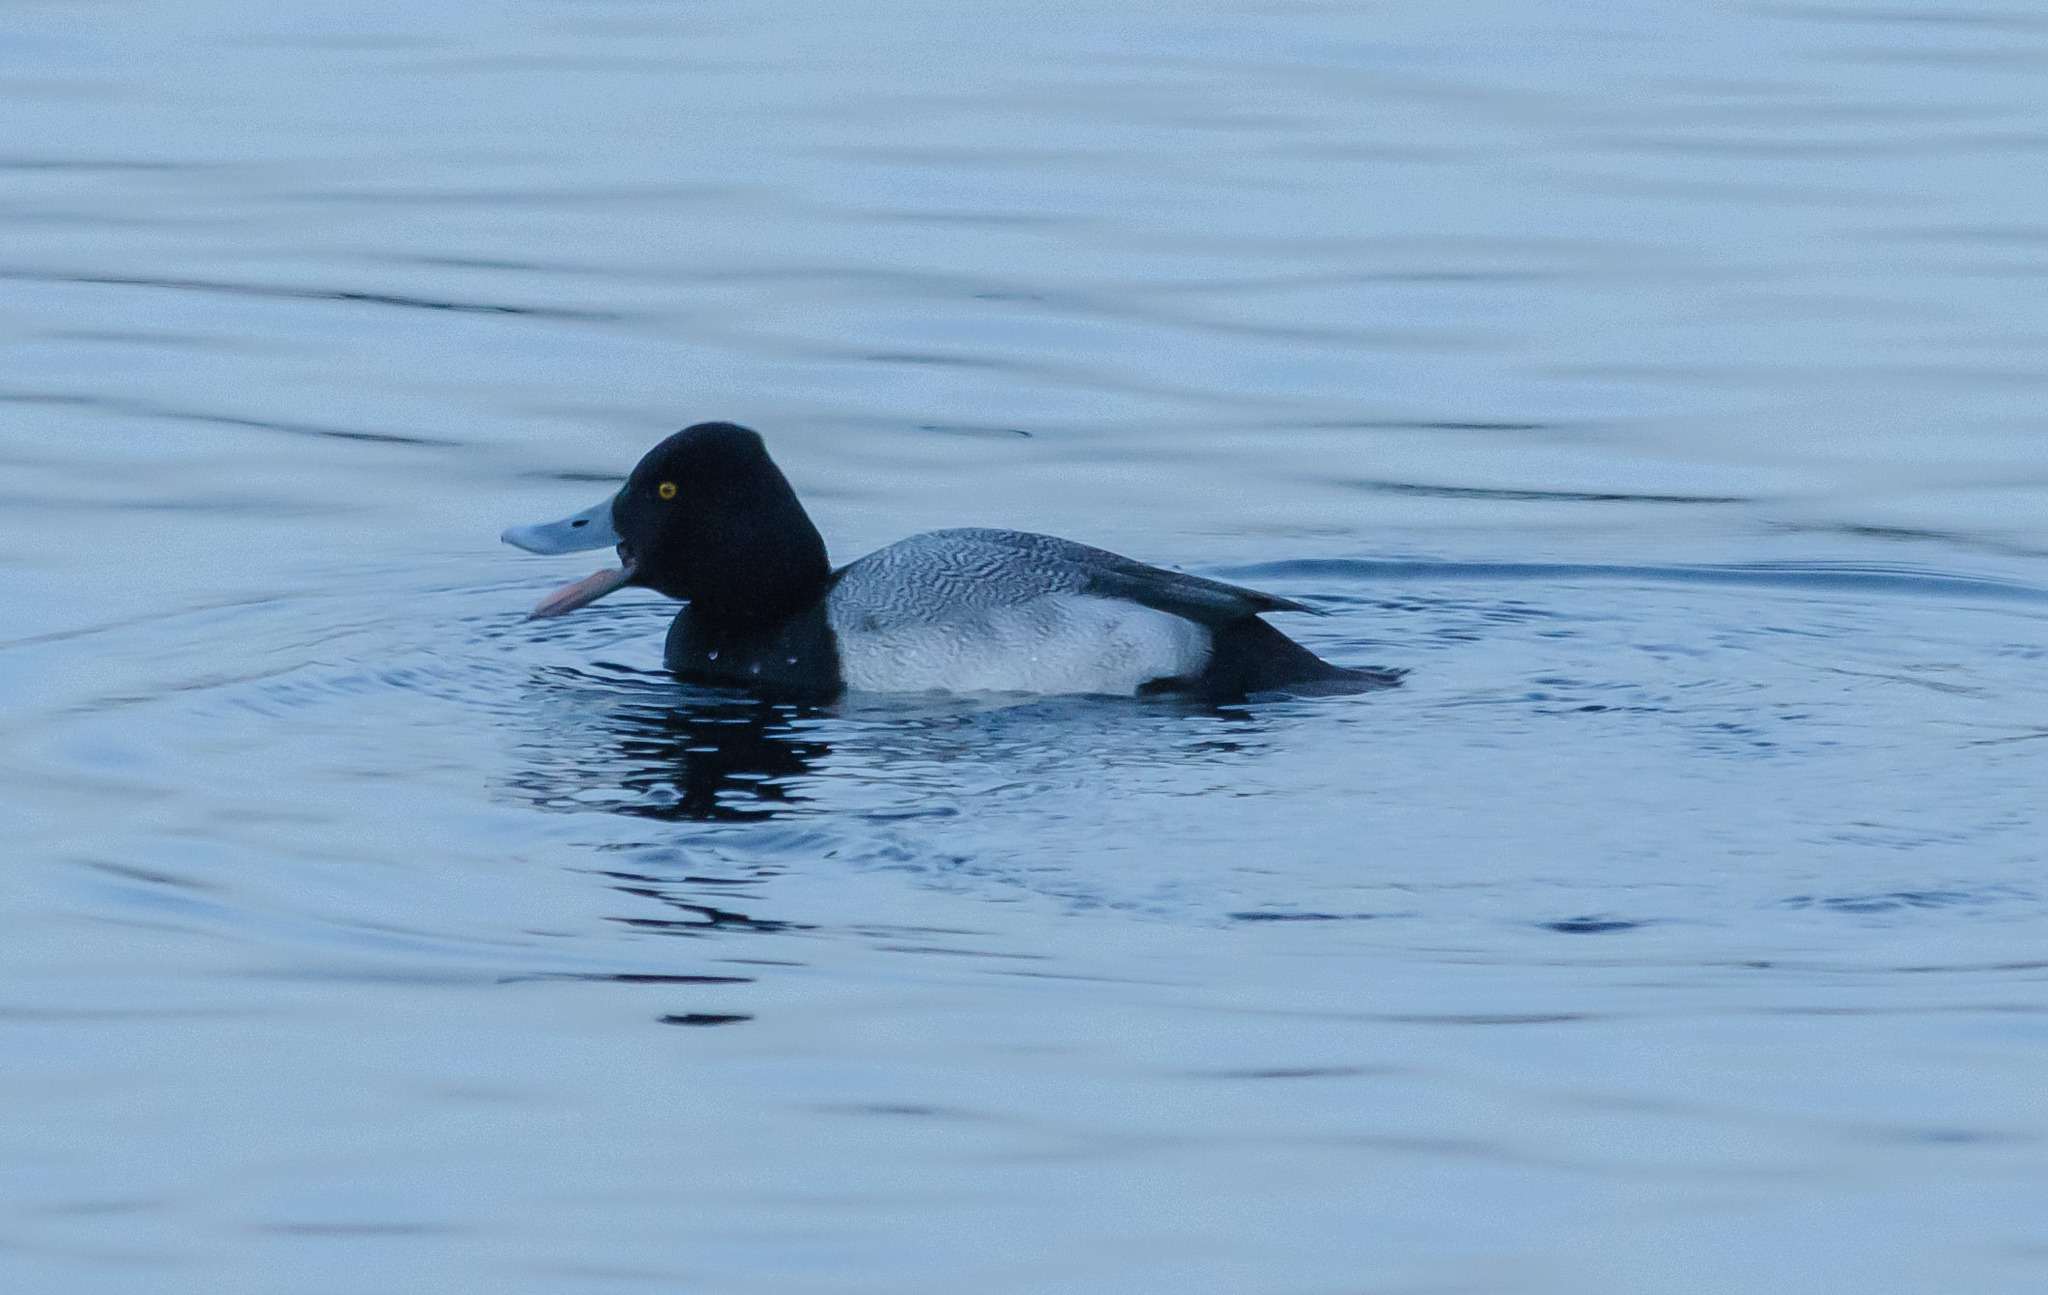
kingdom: Animalia
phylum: Chordata
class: Aves
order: Anseriformes
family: Anatidae
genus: Aythya
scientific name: Aythya affinis
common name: Lesser scaup
